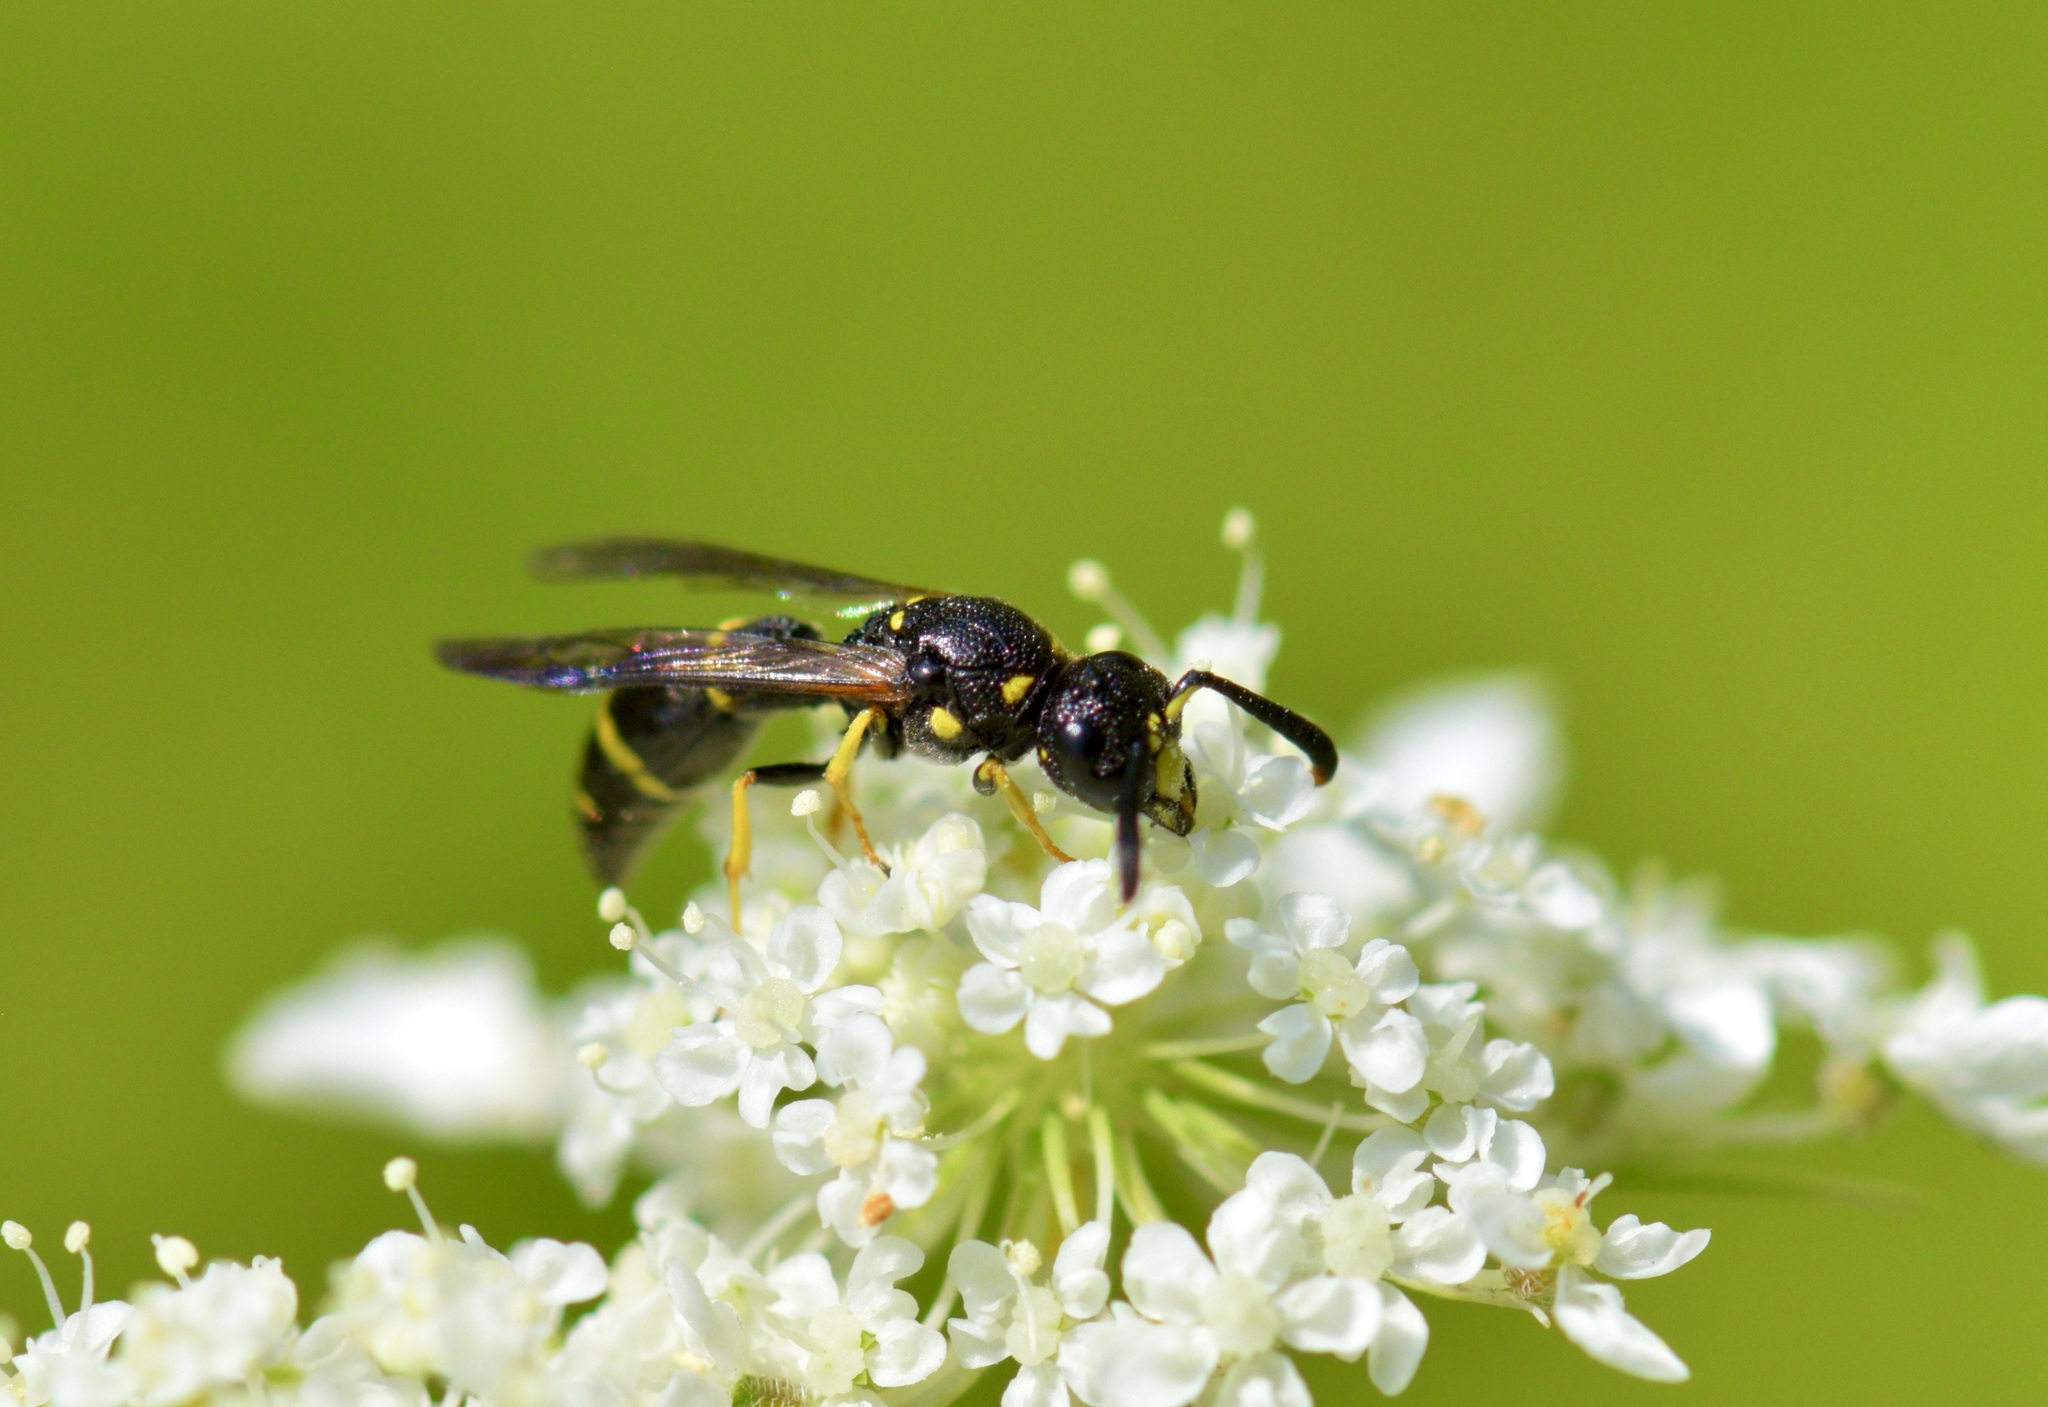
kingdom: Animalia
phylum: Arthropoda
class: Insecta
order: Hymenoptera
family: Eumenidae
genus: Symmorphus
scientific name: Symmorphus
